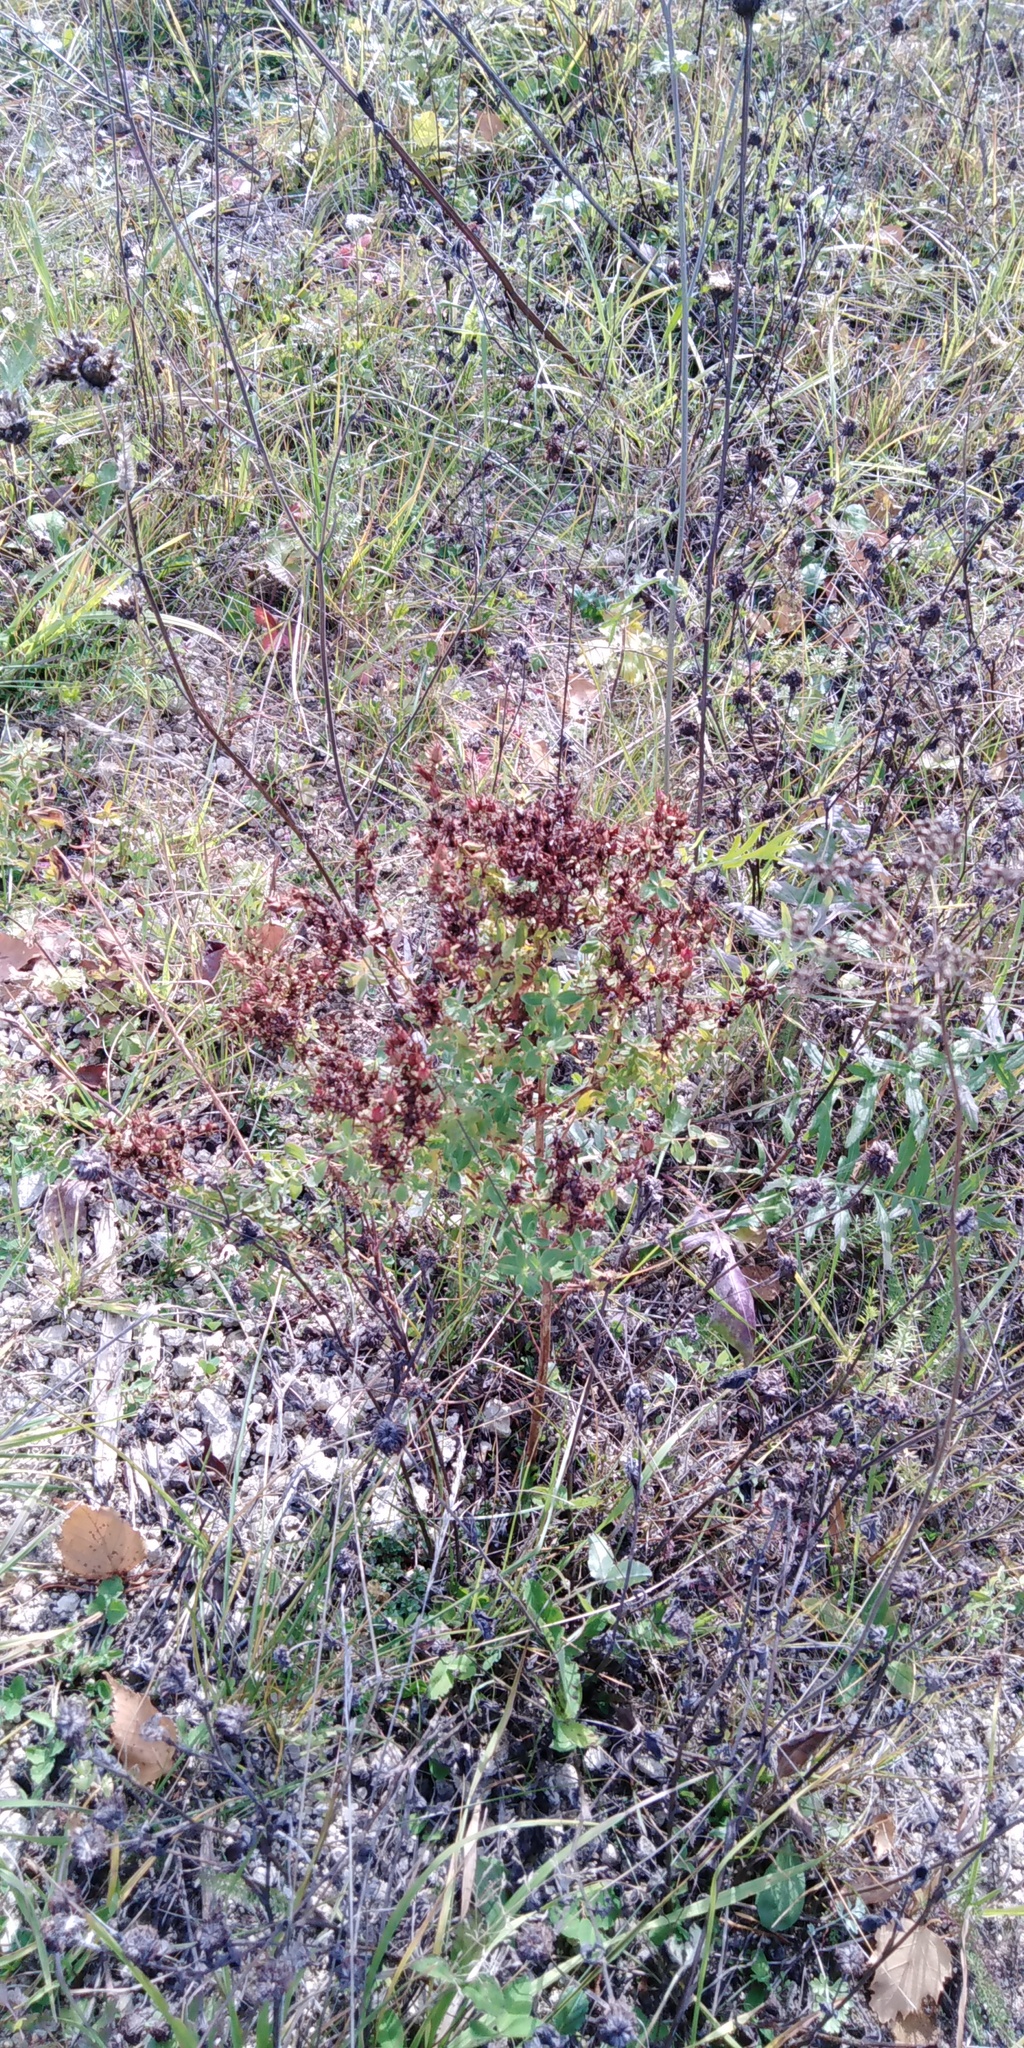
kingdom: Plantae
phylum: Tracheophyta
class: Magnoliopsida
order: Malpighiales
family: Hypericaceae
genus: Hypericum
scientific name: Hypericum perforatum
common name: Common st. johnswort
